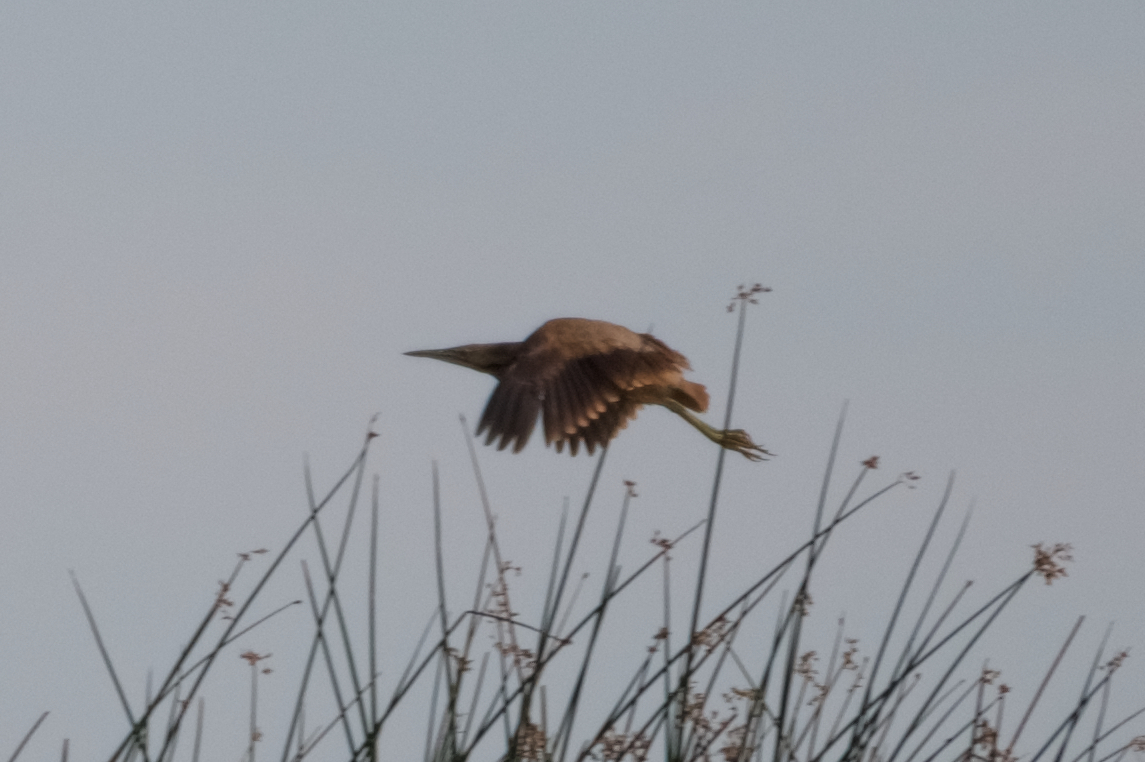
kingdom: Animalia
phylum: Chordata
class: Aves
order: Pelecaniformes
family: Ardeidae
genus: Botaurus
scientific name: Botaurus lentiginosus
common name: American bittern
